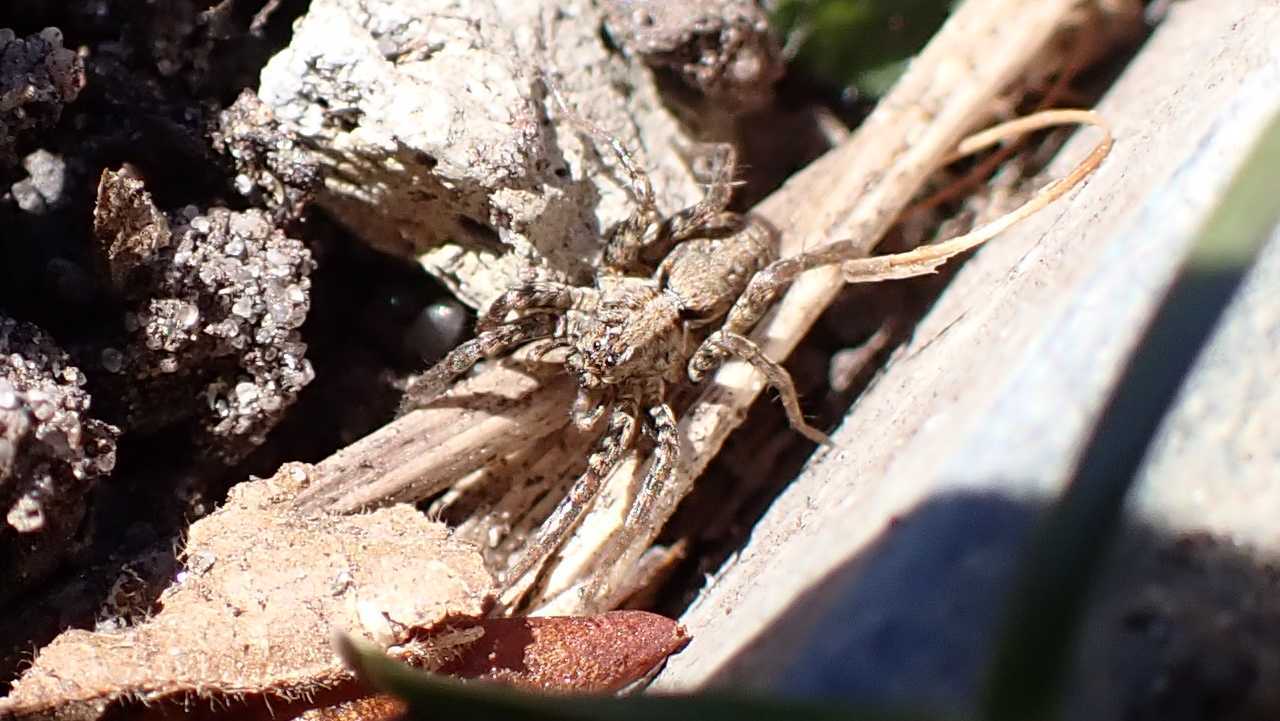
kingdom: Animalia
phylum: Arthropoda
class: Arachnida
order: Araneae
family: Lycosidae
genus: Xerolycosa
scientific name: Xerolycosa miniata
